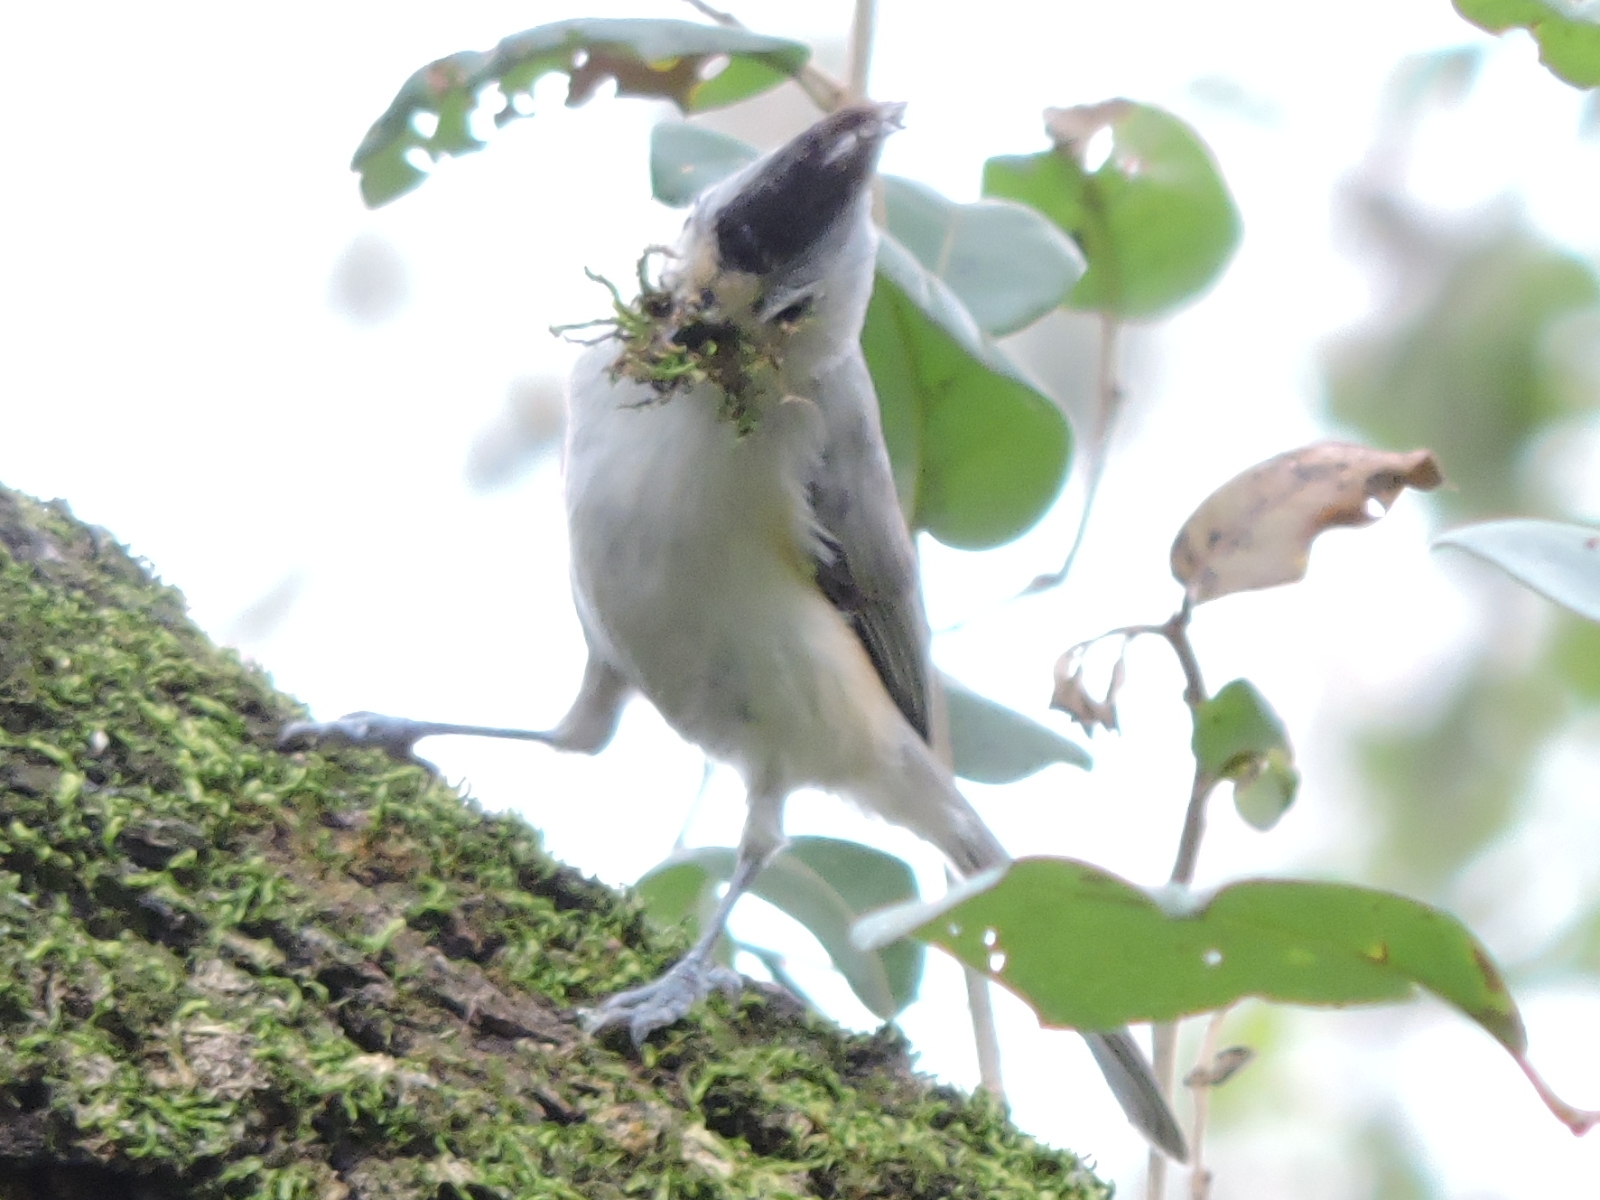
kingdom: Animalia
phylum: Chordata
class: Aves
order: Passeriformes
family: Paridae
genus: Baeolophus
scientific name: Baeolophus atricristatus
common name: Black-crested titmouse
